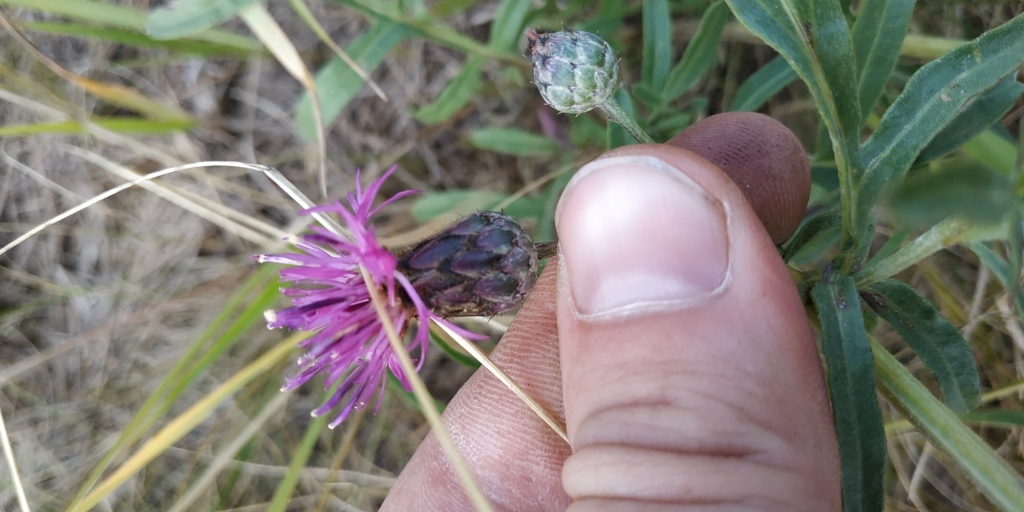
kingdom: Plantae
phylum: Tracheophyta
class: Magnoliopsida
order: Asterales
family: Asteraceae
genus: Centaurea
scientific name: Centaurea scabiosa
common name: Greater knapweed
